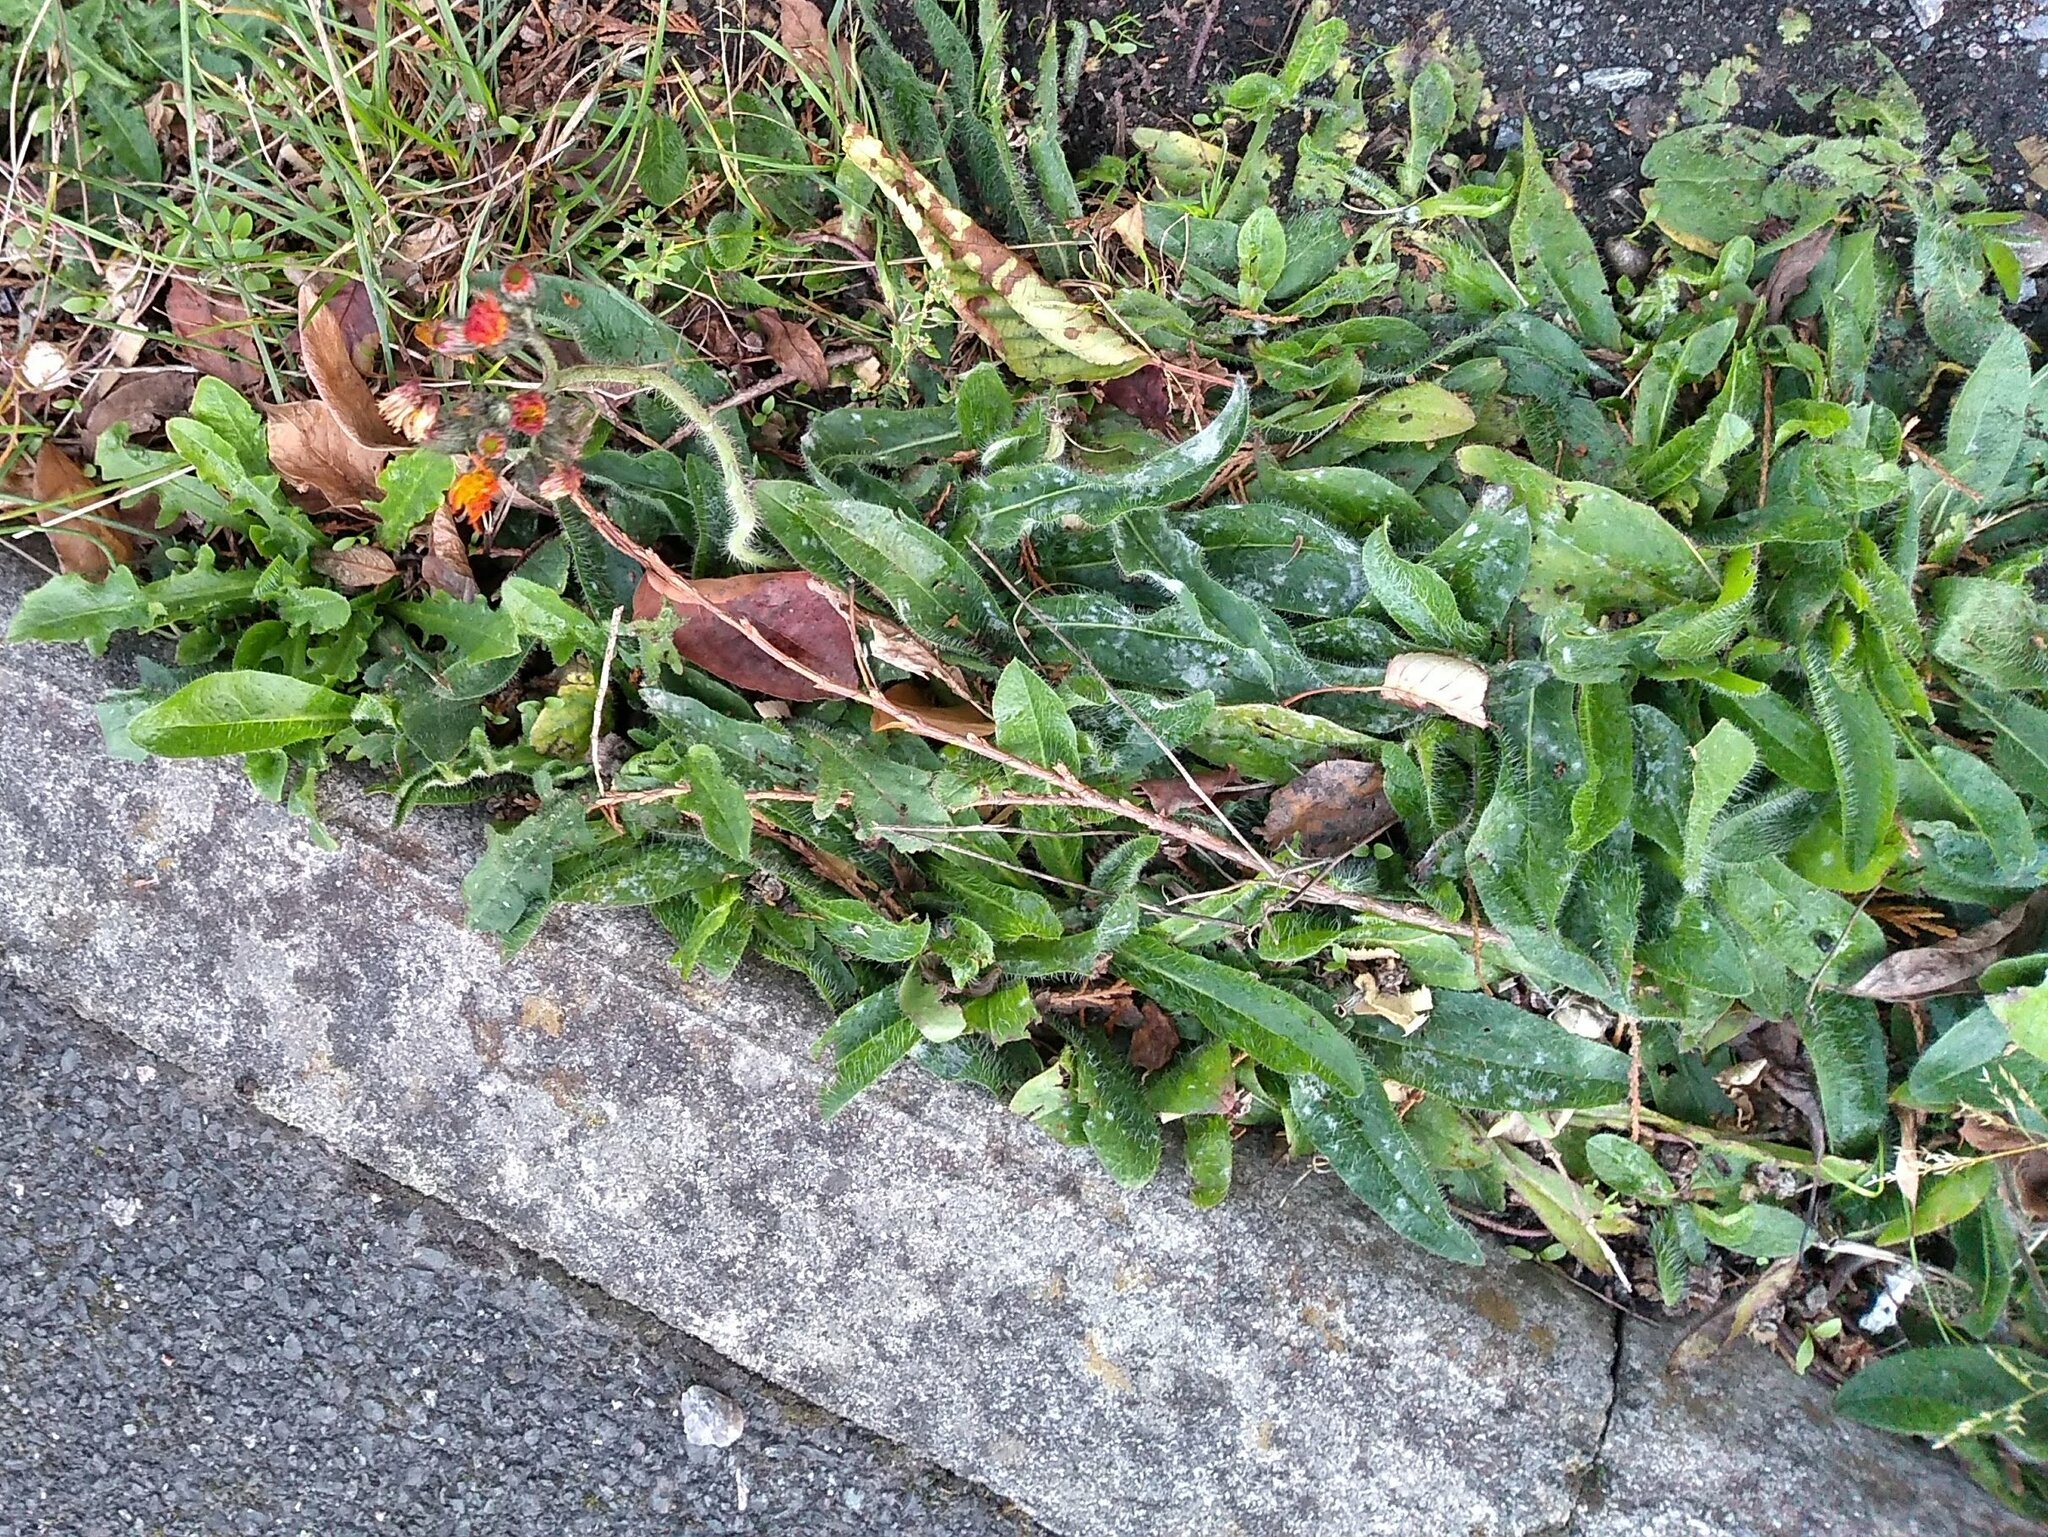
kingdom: Plantae
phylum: Tracheophyta
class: Magnoliopsida
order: Asterales
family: Asteraceae
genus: Pilosella
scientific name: Pilosella aurantiaca
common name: Fox-and-cubs
